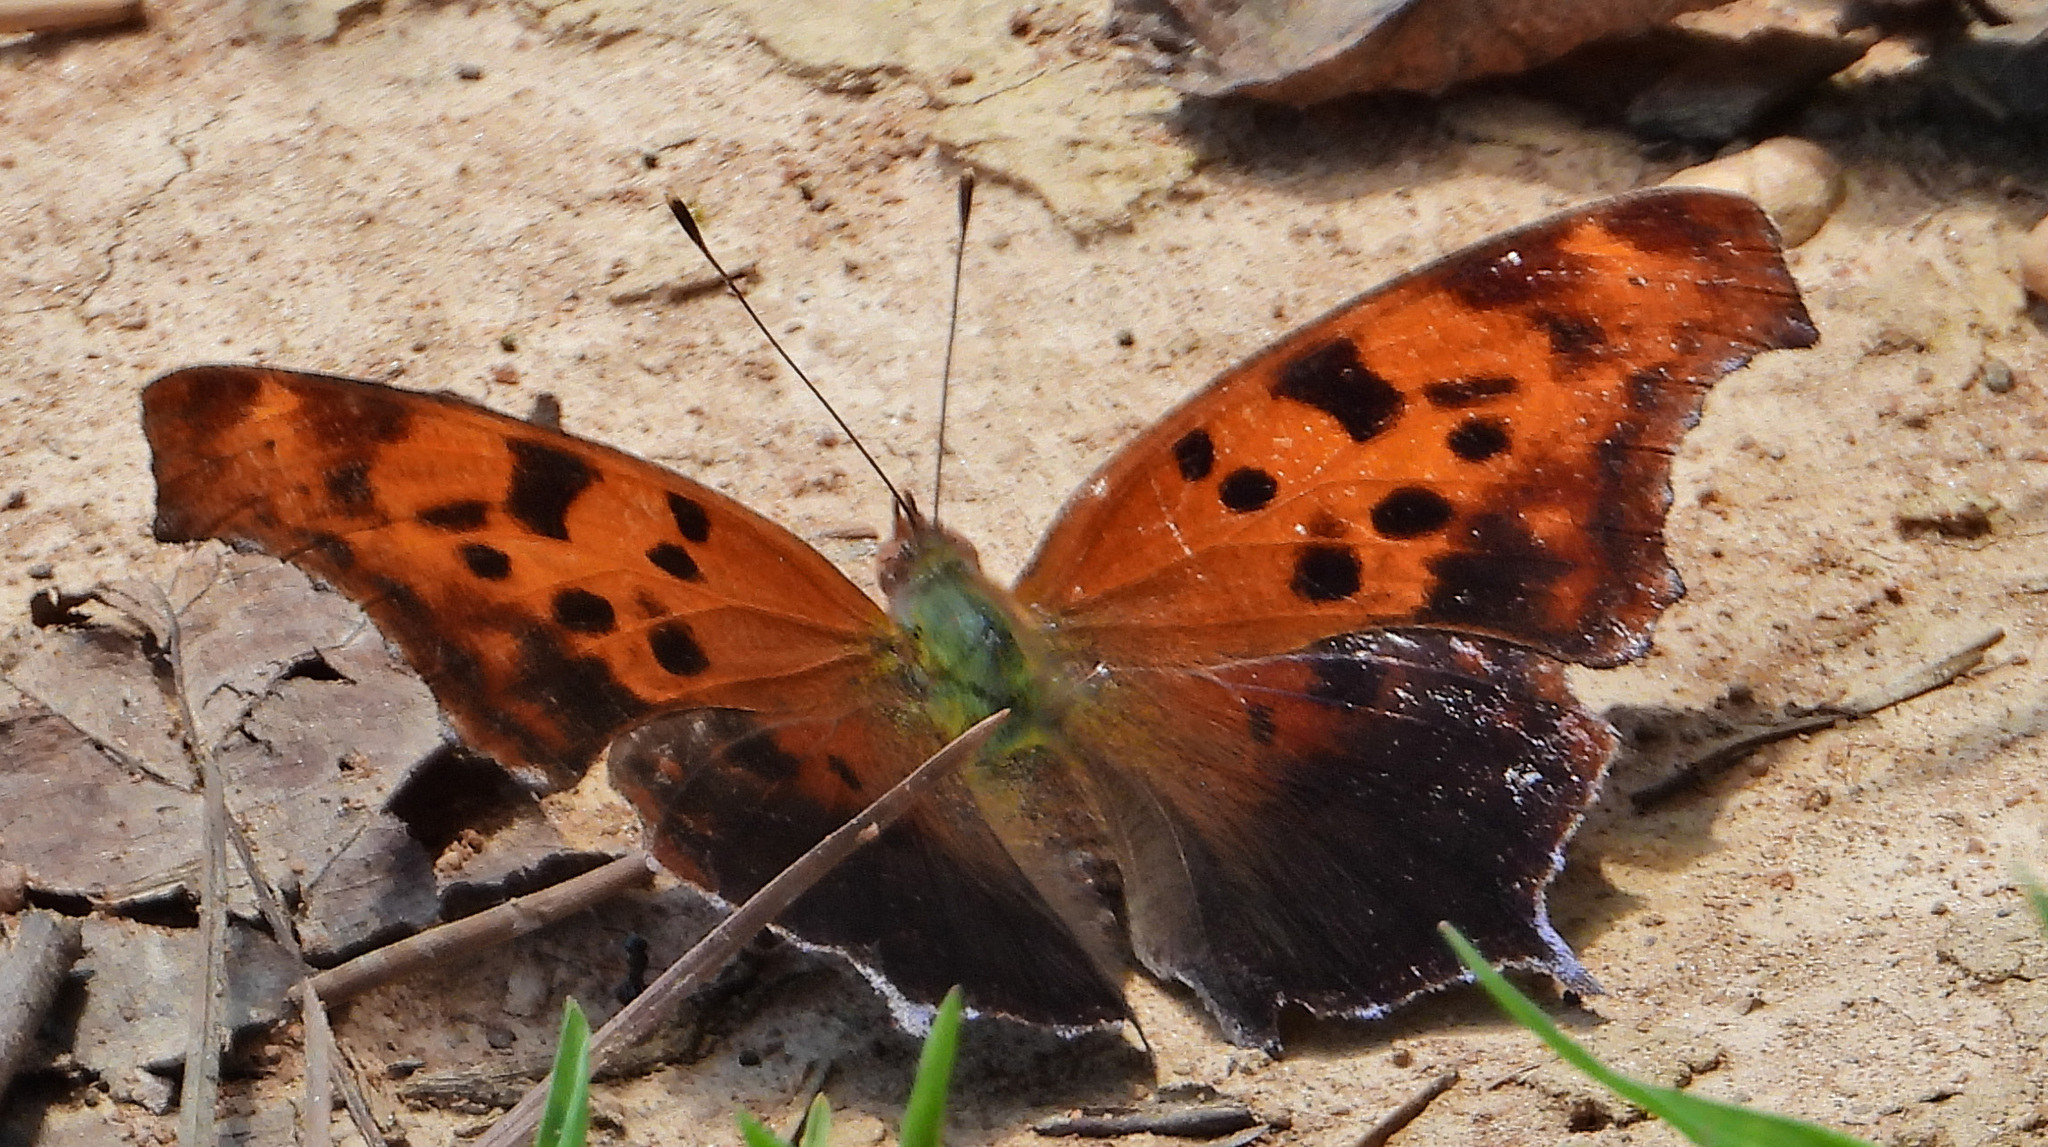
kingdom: Animalia
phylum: Arthropoda
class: Insecta
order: Lepidoptera
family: Nymphalidae
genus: Polygonia
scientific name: Polygonia interrogationis
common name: Question mark
